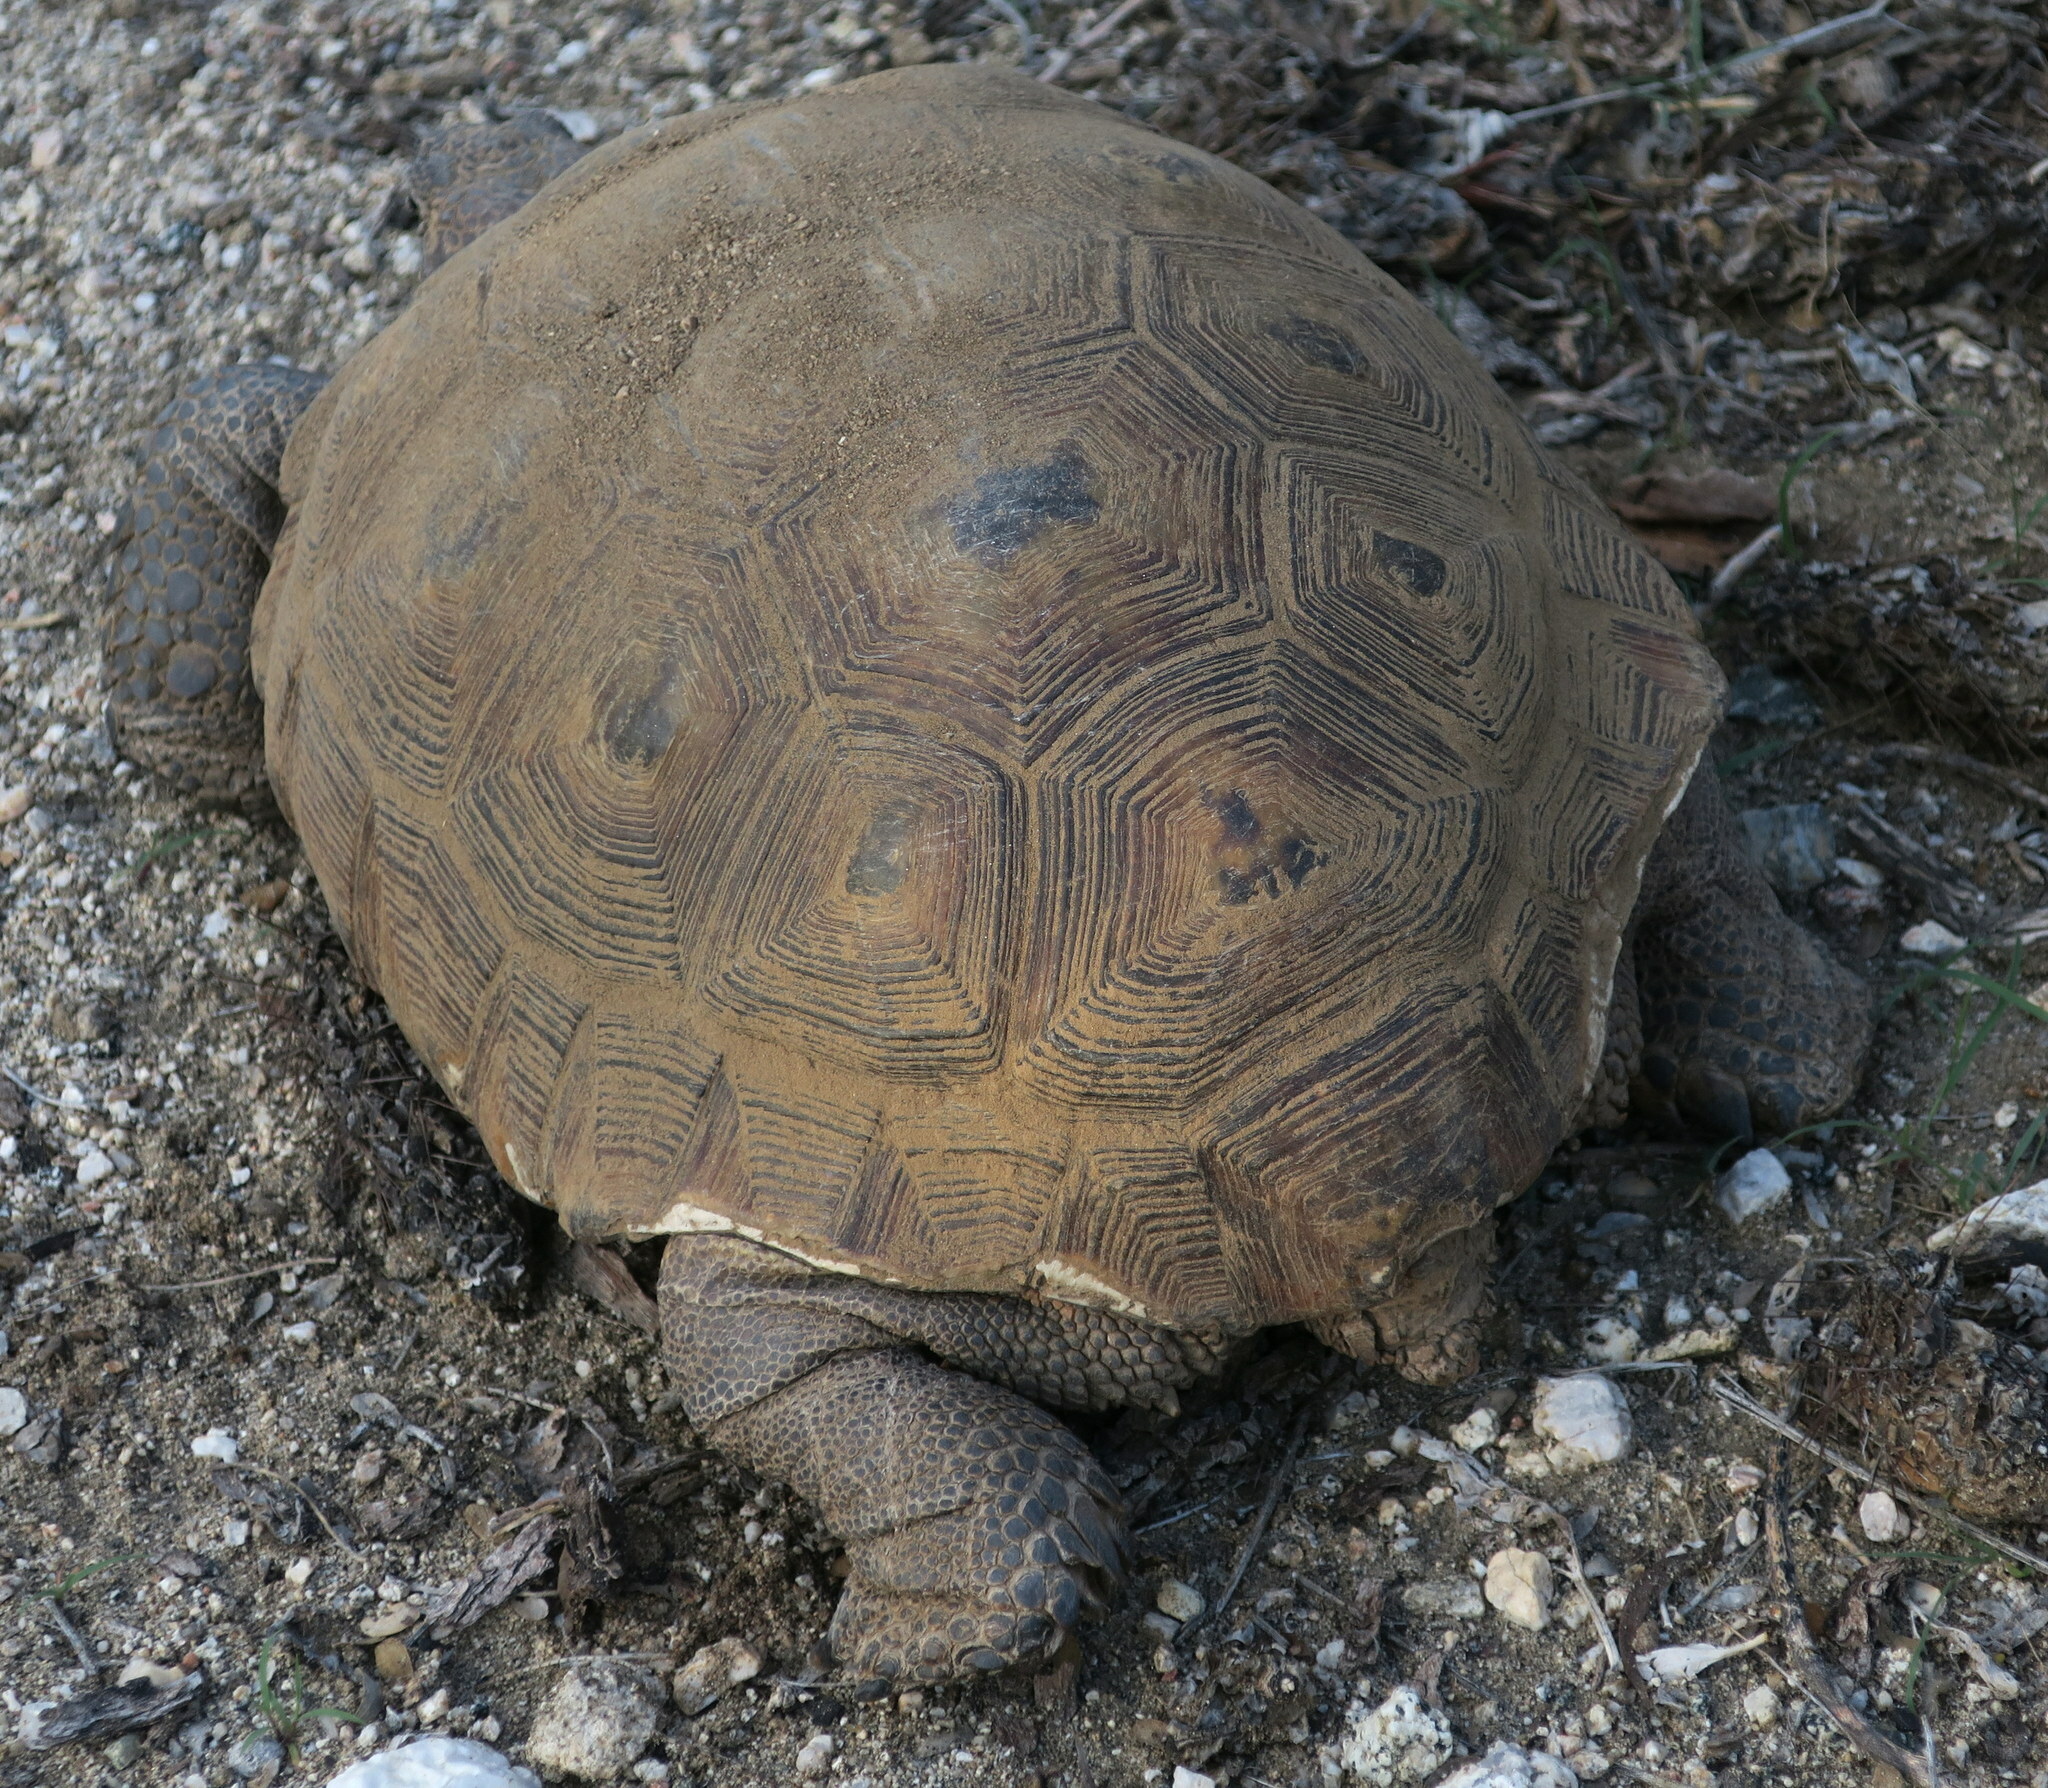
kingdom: Animalia
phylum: Chordata
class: Testudines
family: Testudinidae
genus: Gopherus
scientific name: Gopherus morafkai
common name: Sonoran desert tortoise
